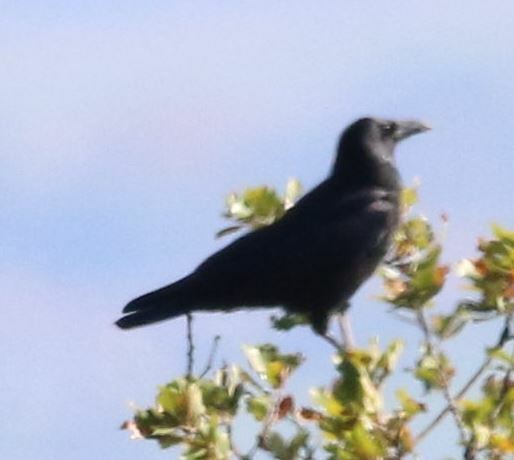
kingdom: Animalia
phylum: Chordata
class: Aves
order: Passeriformes
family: Corvidae
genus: Corvus
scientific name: Corvus corone
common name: Carrion crow
